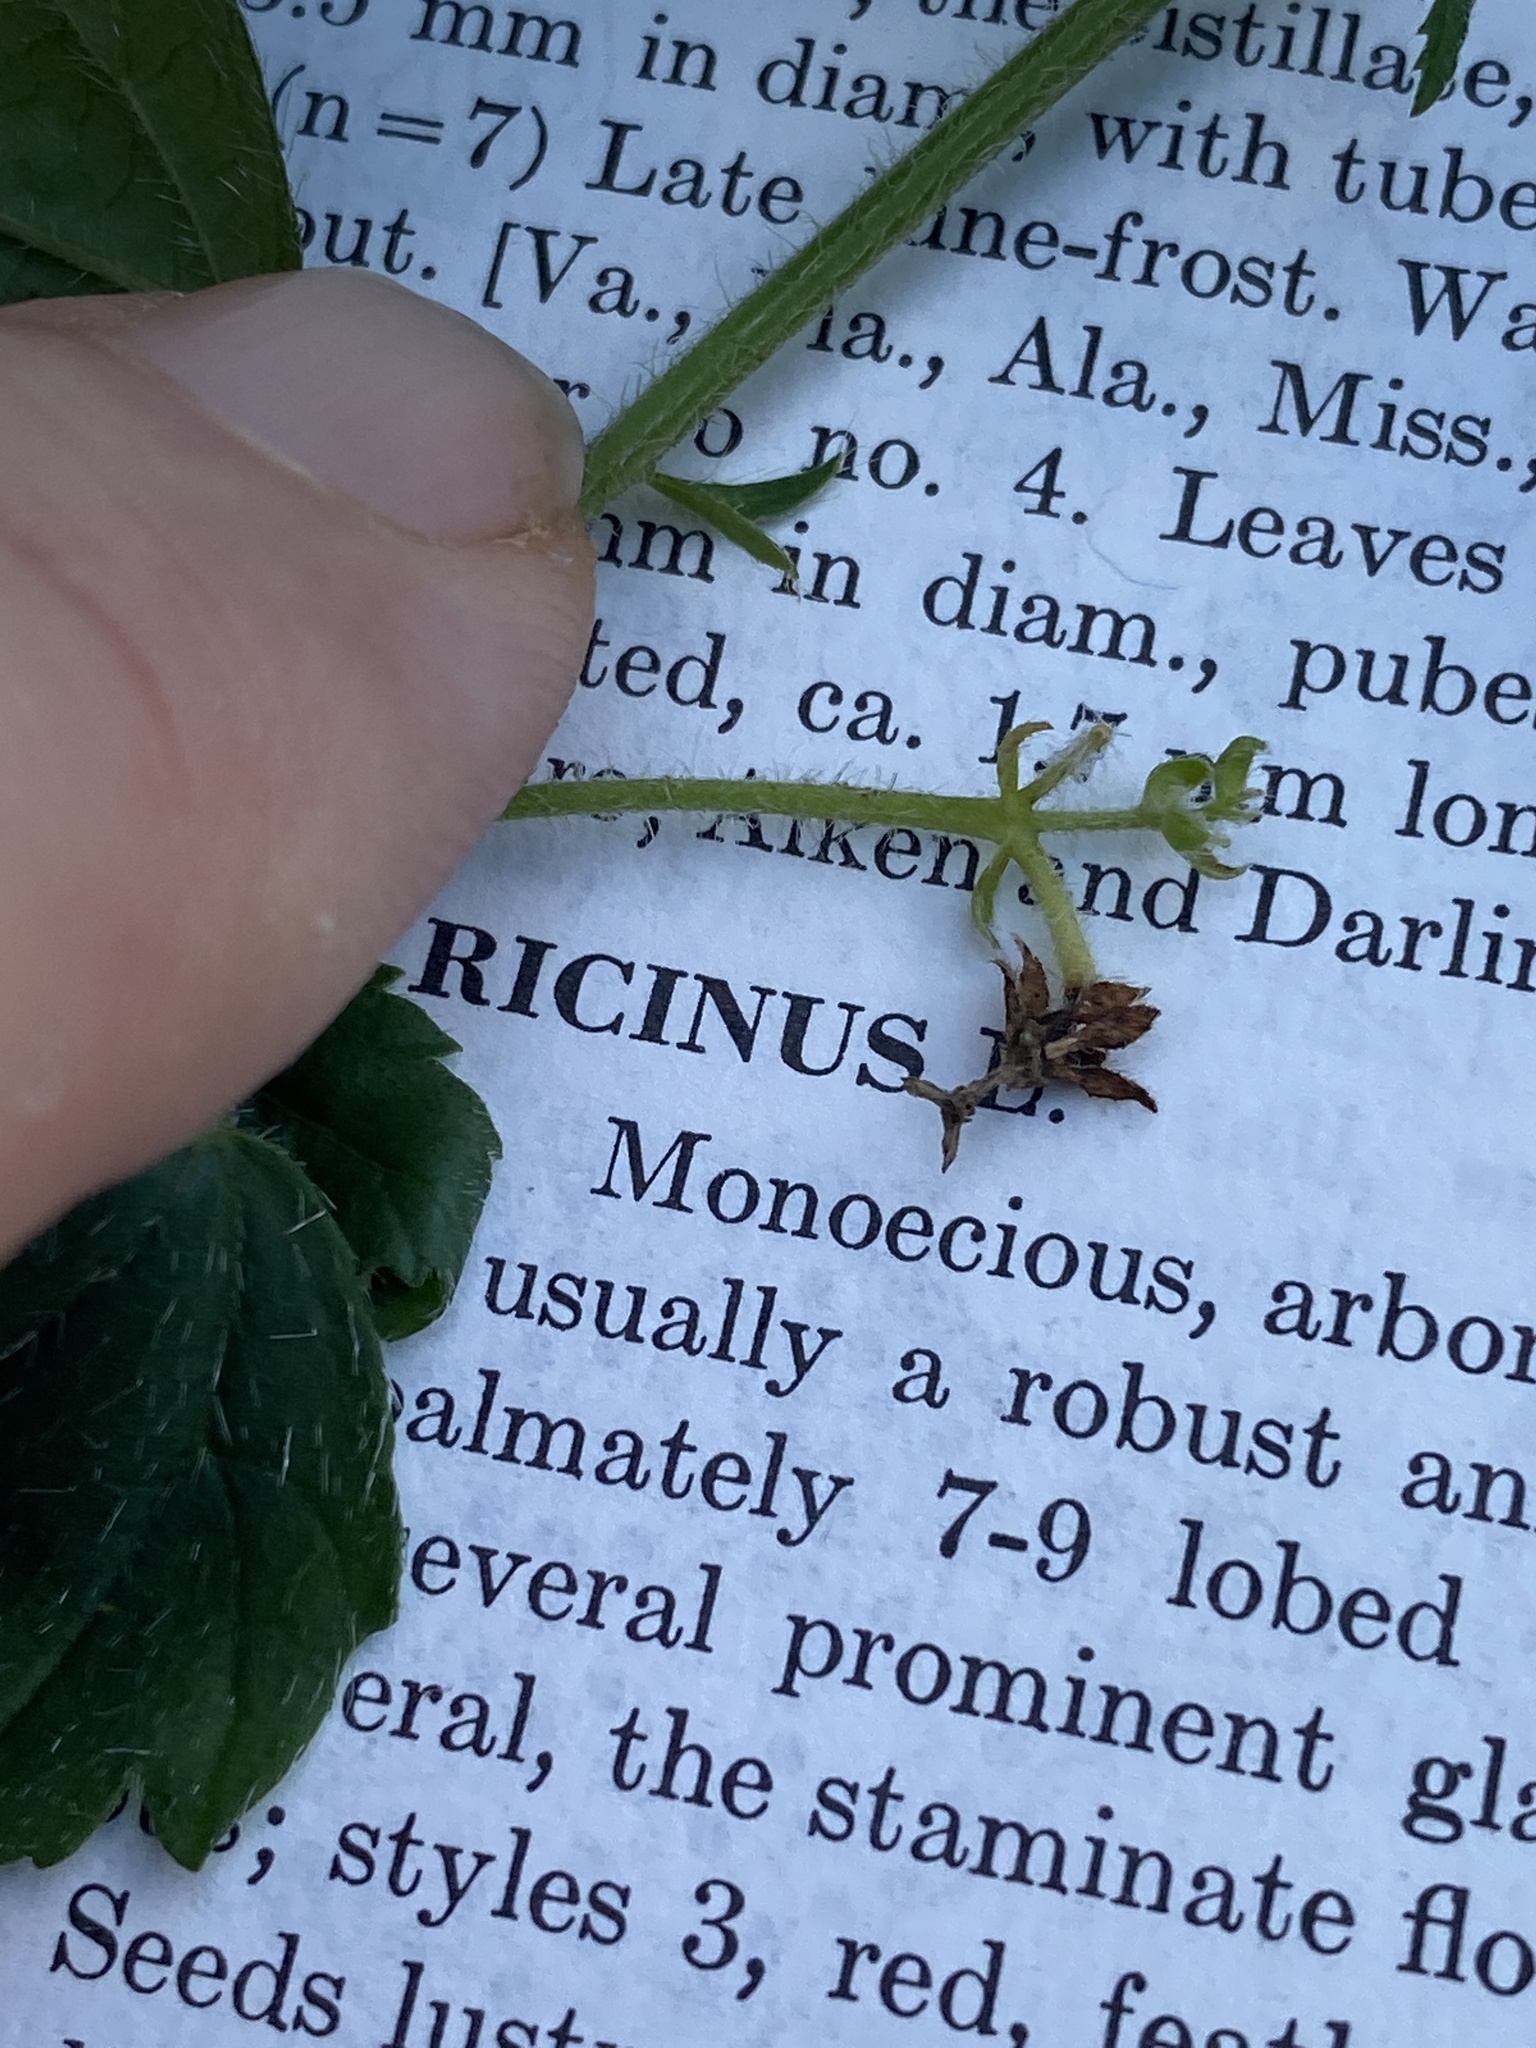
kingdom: Plantae
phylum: Tracheophyta
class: Magnoliopsida
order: Malpighiales
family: Euphorbiaceae
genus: Tragia
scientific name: Tragia urticifolia
